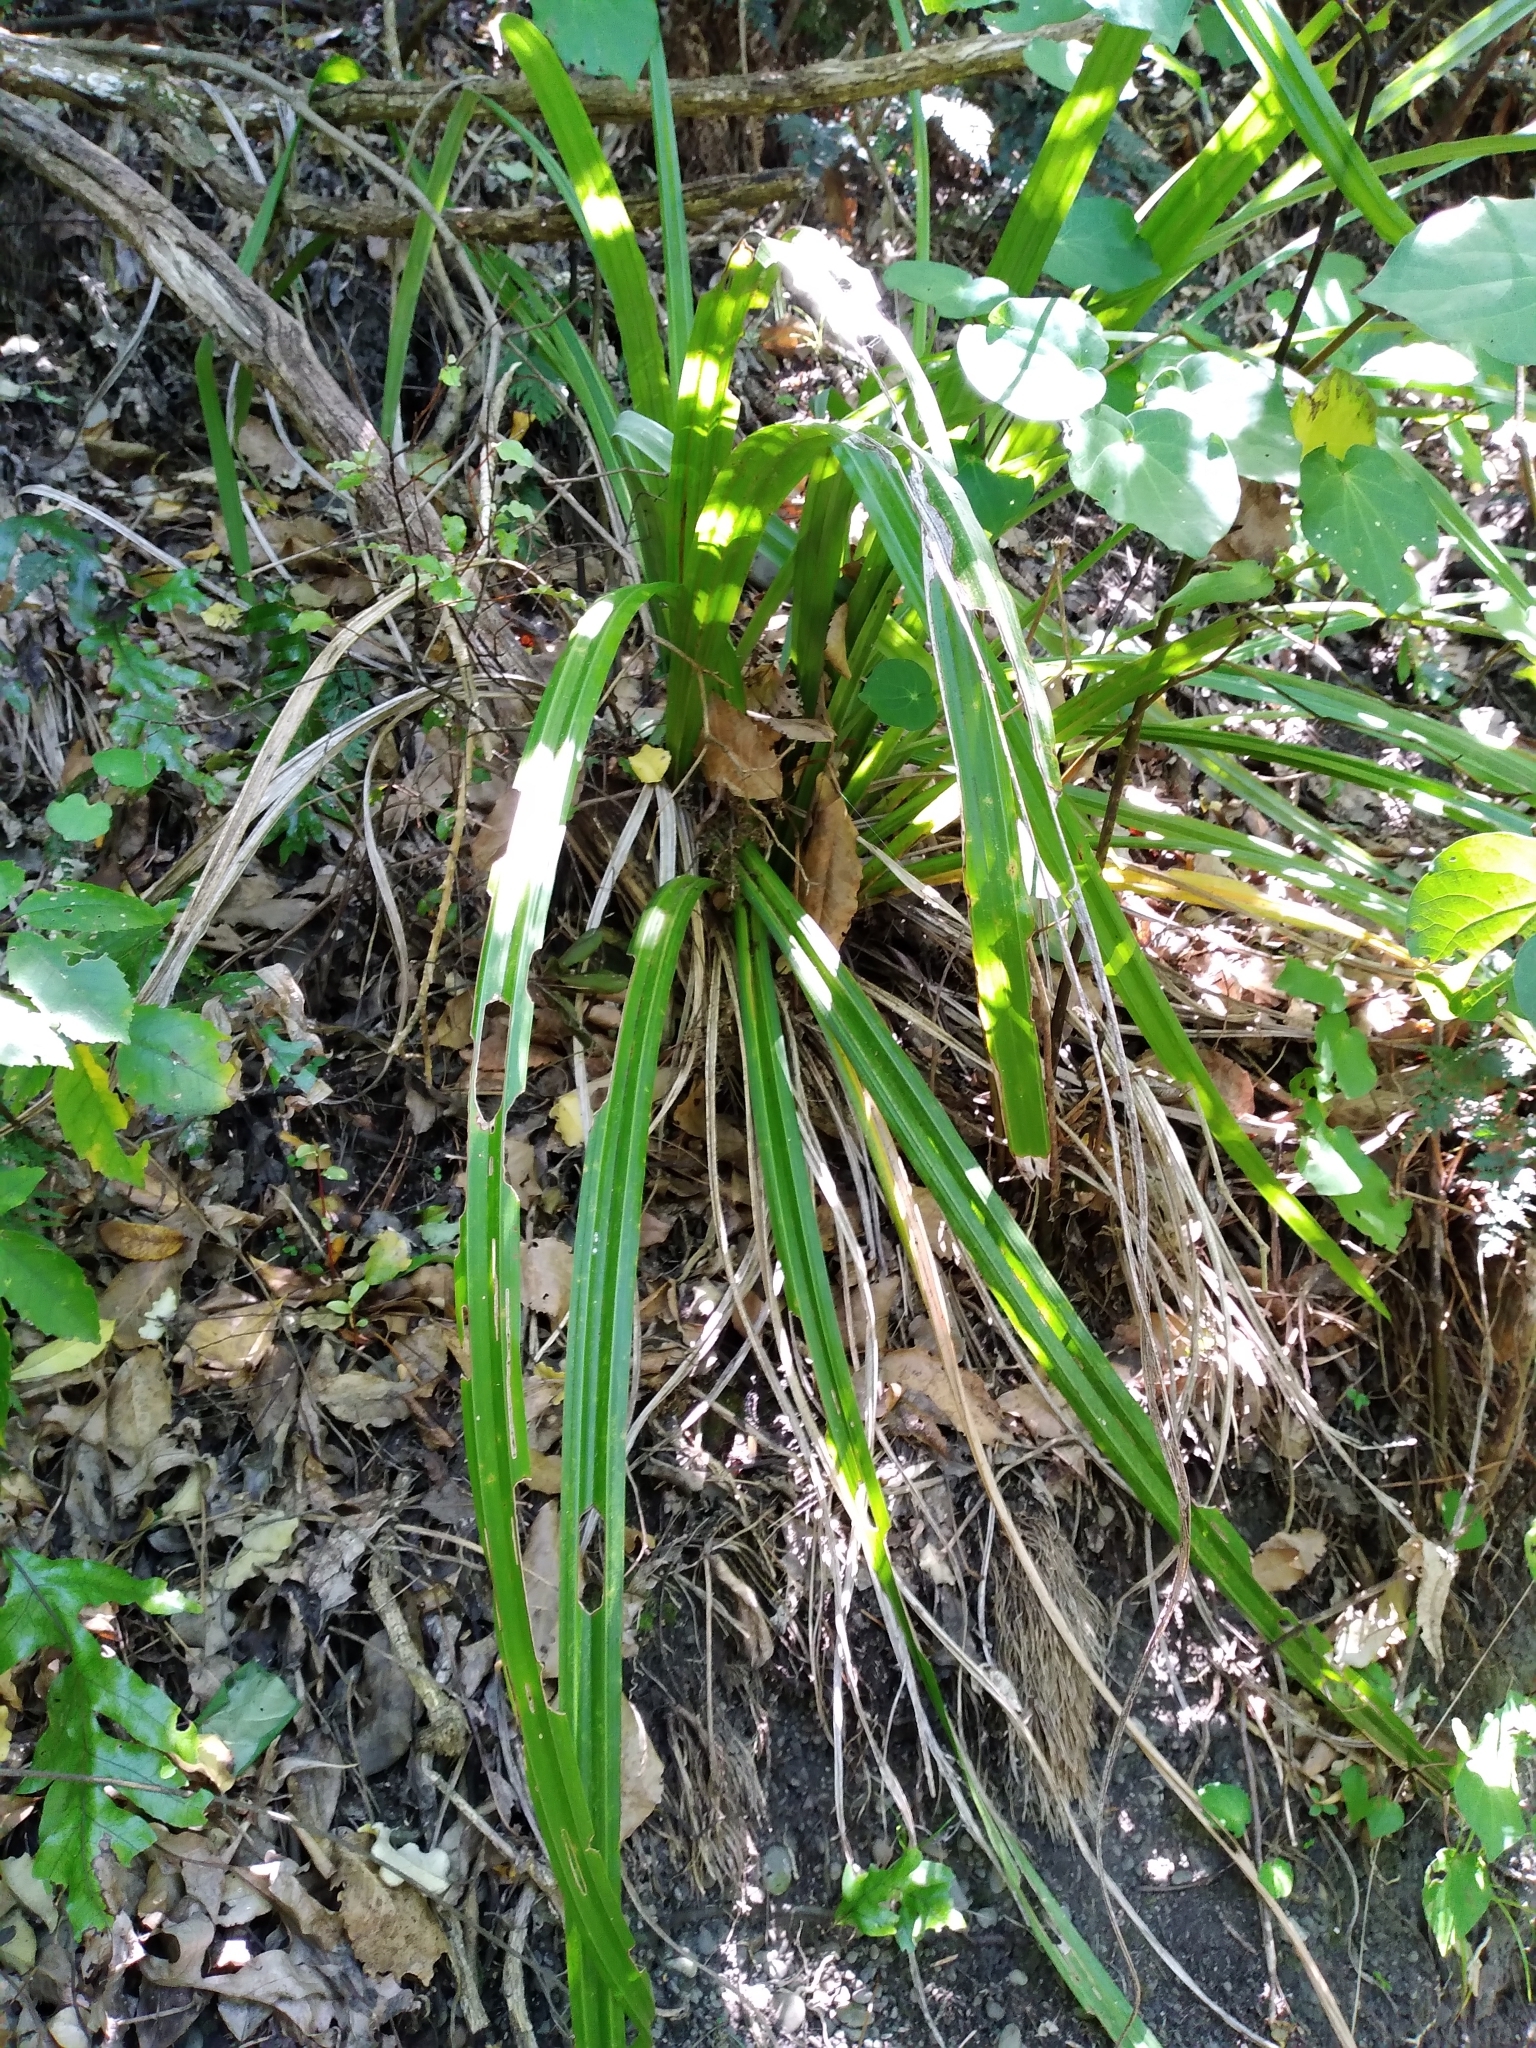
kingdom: Plantae
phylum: Tracheophyta
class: Liliopsida
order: Asparagales
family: Asteliaceae
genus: Astelia
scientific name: Astelia fragrans
